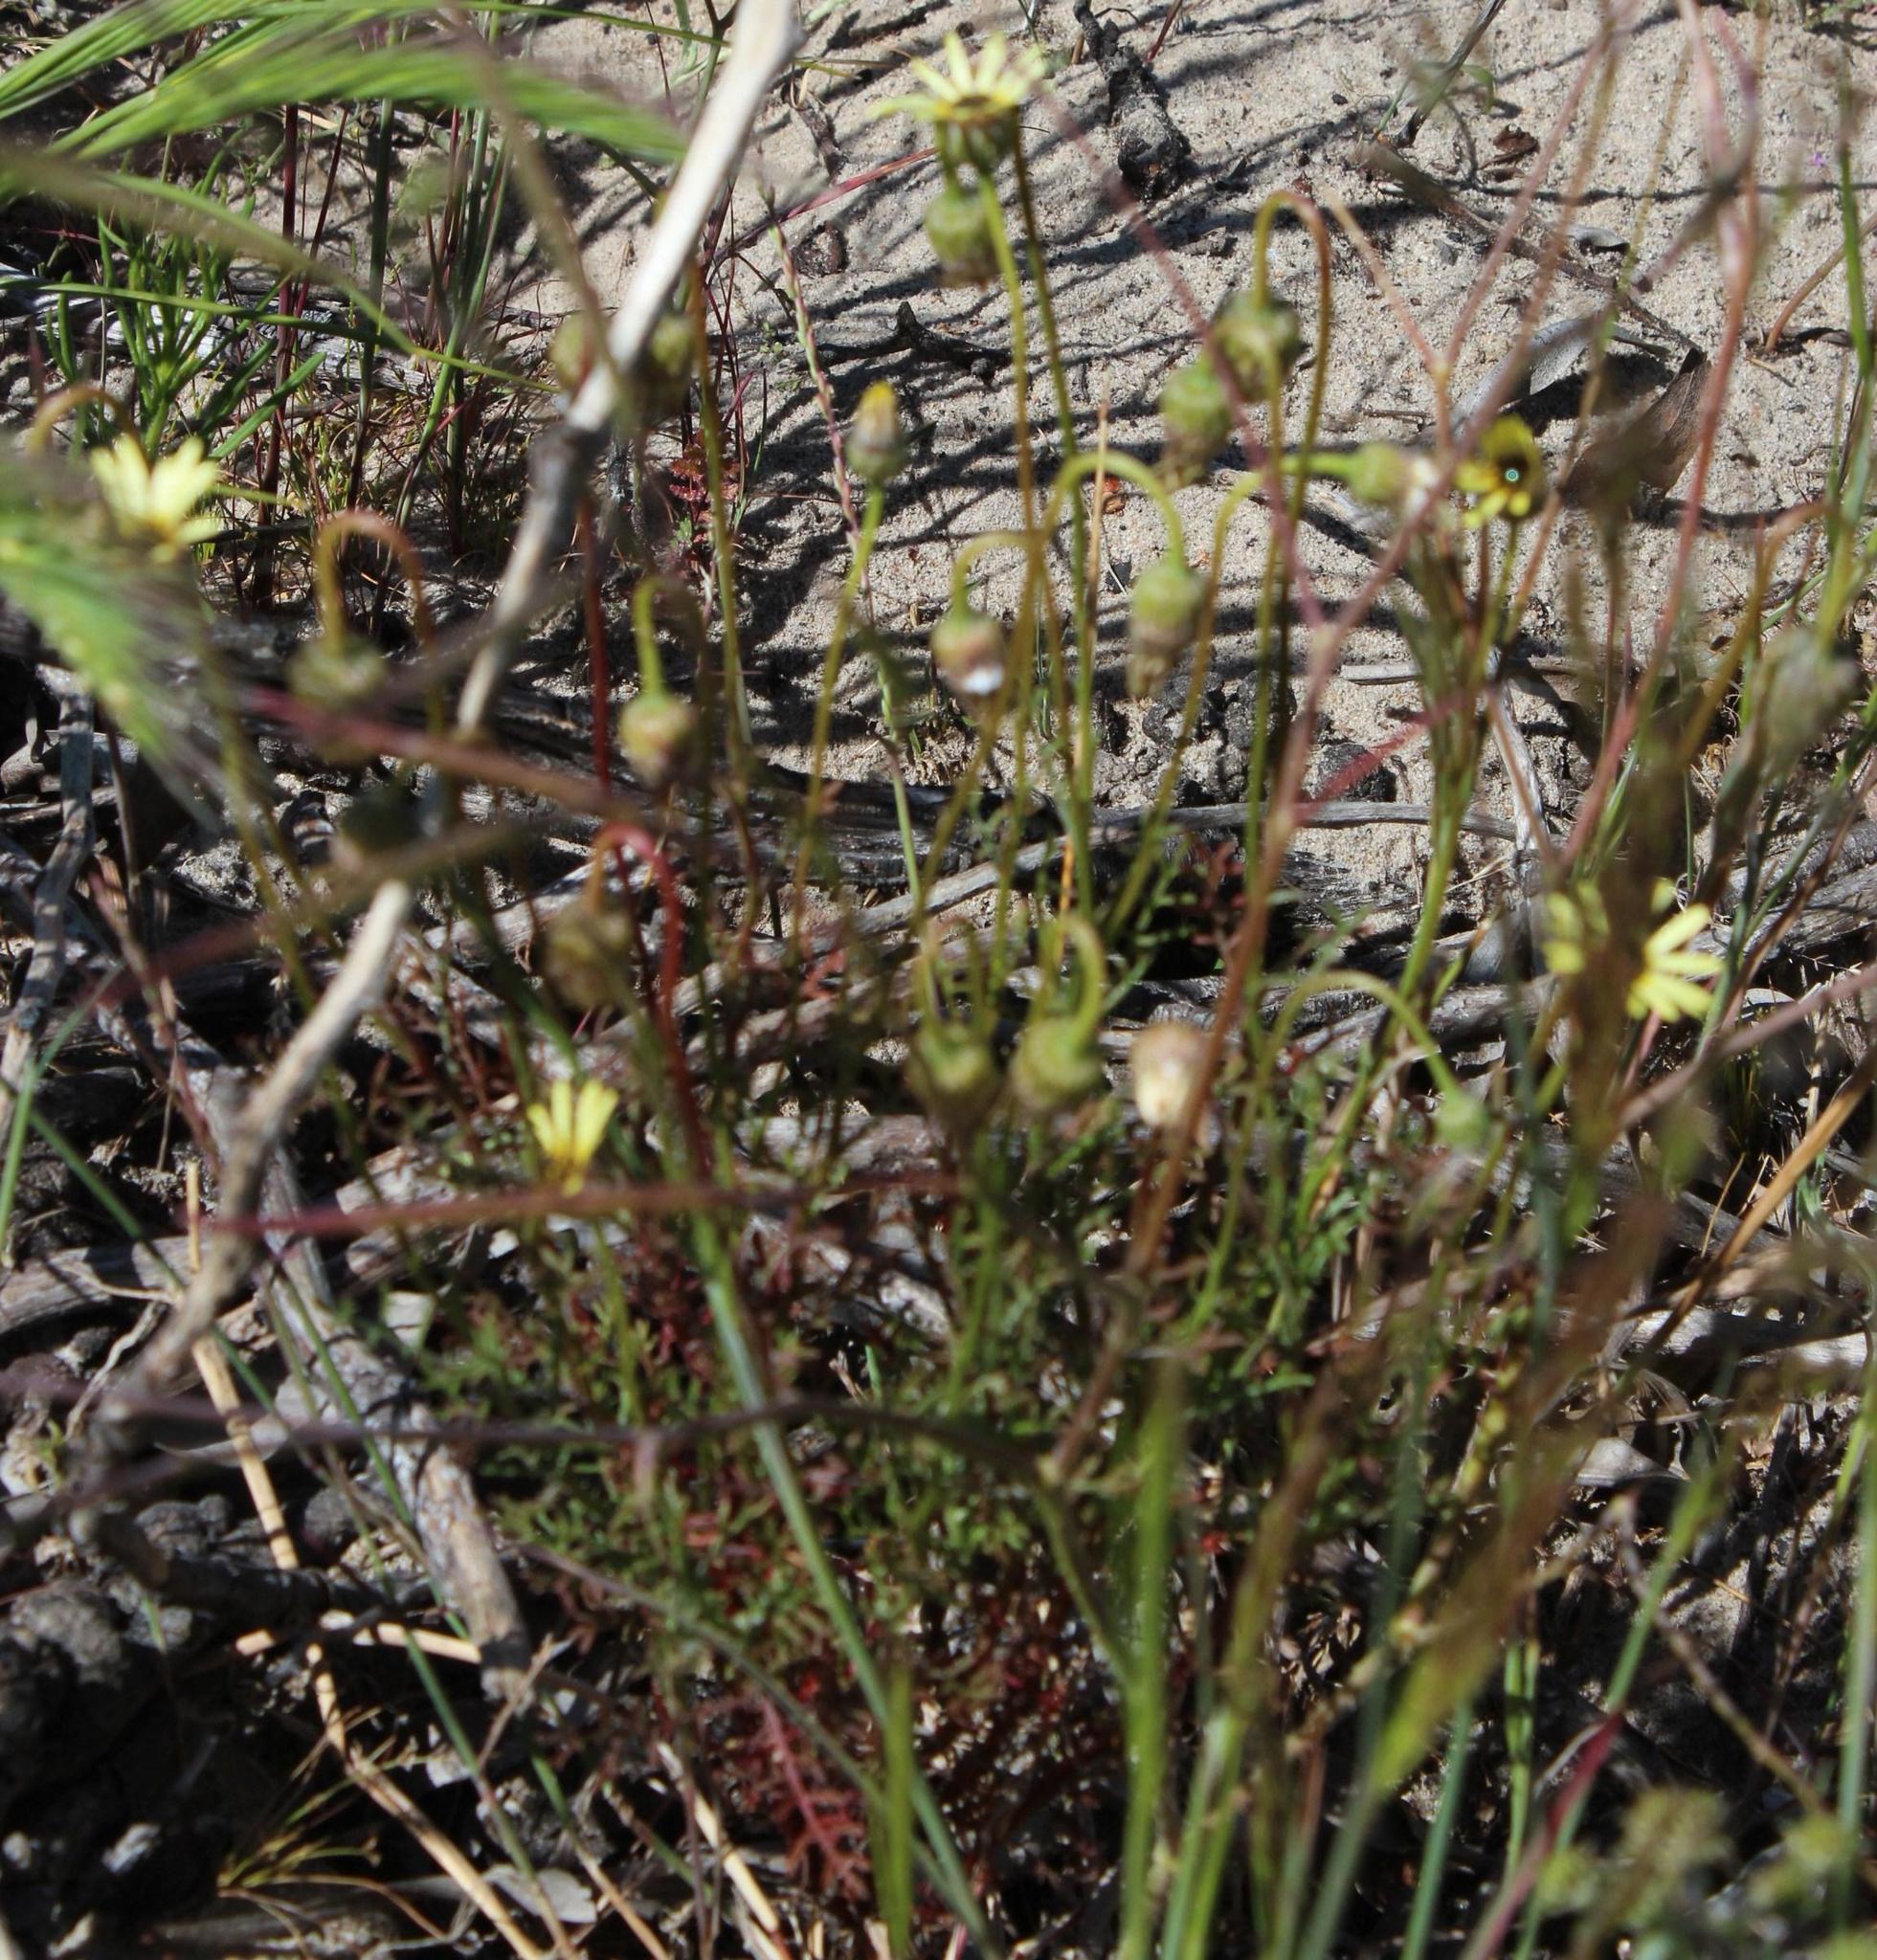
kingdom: Plantae
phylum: Tracheophyta
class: Magnoliopsida
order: Asterales
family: Asteraceae
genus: Ursinia
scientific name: Ursinia anthemoides
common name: Ursinia
